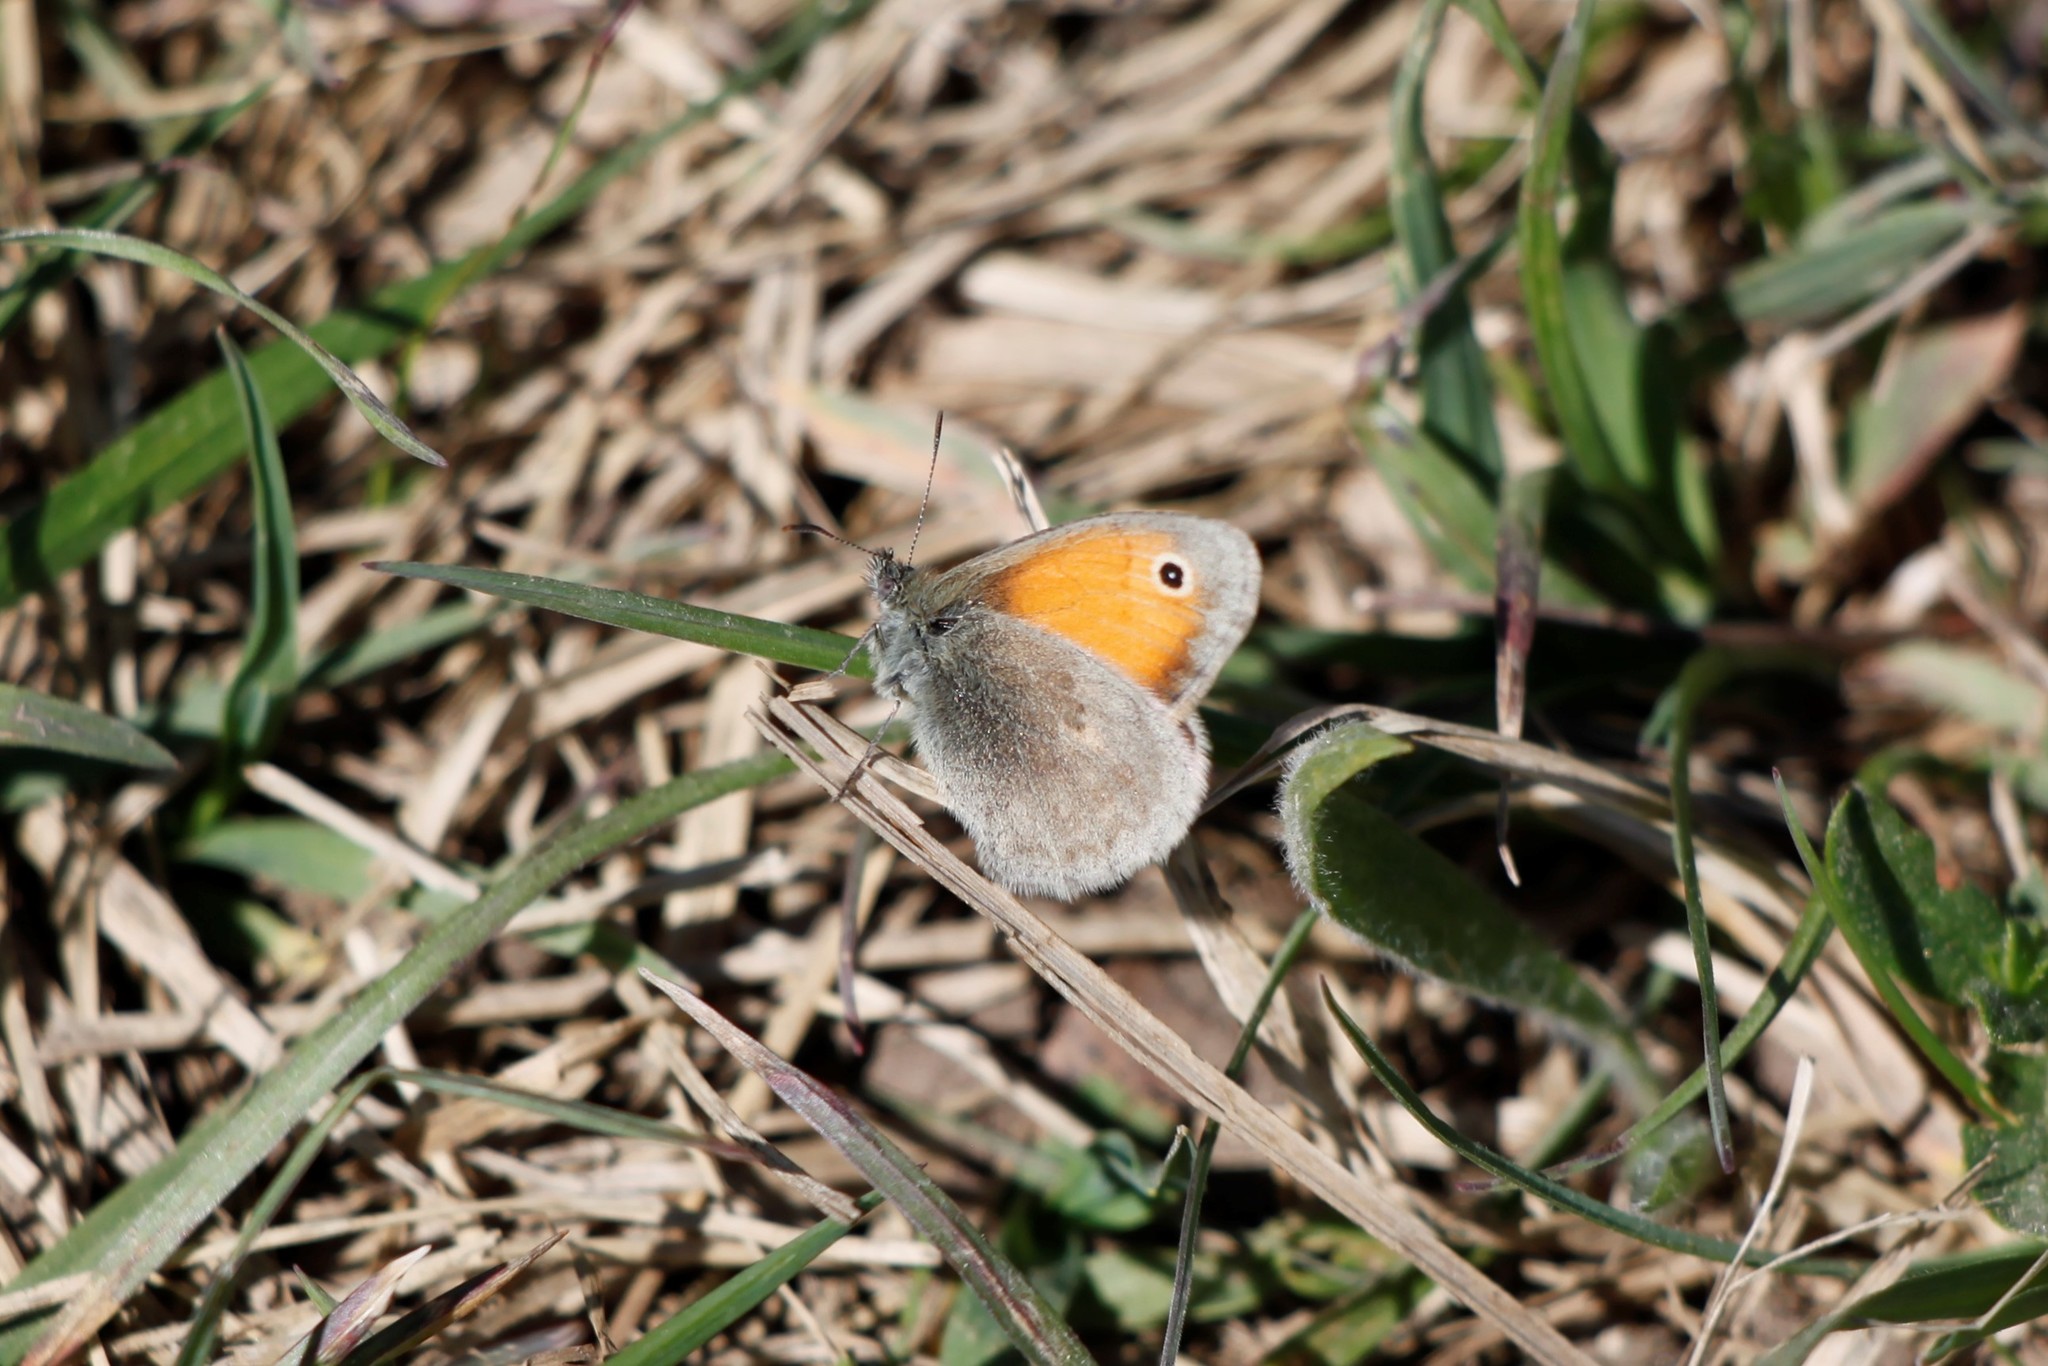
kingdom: Animalia
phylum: Arthropoda
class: Insecta
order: Lepidoptera
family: Nymphalidae
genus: Coenonympha
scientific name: Coenonympha pamphilus
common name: Small heath
